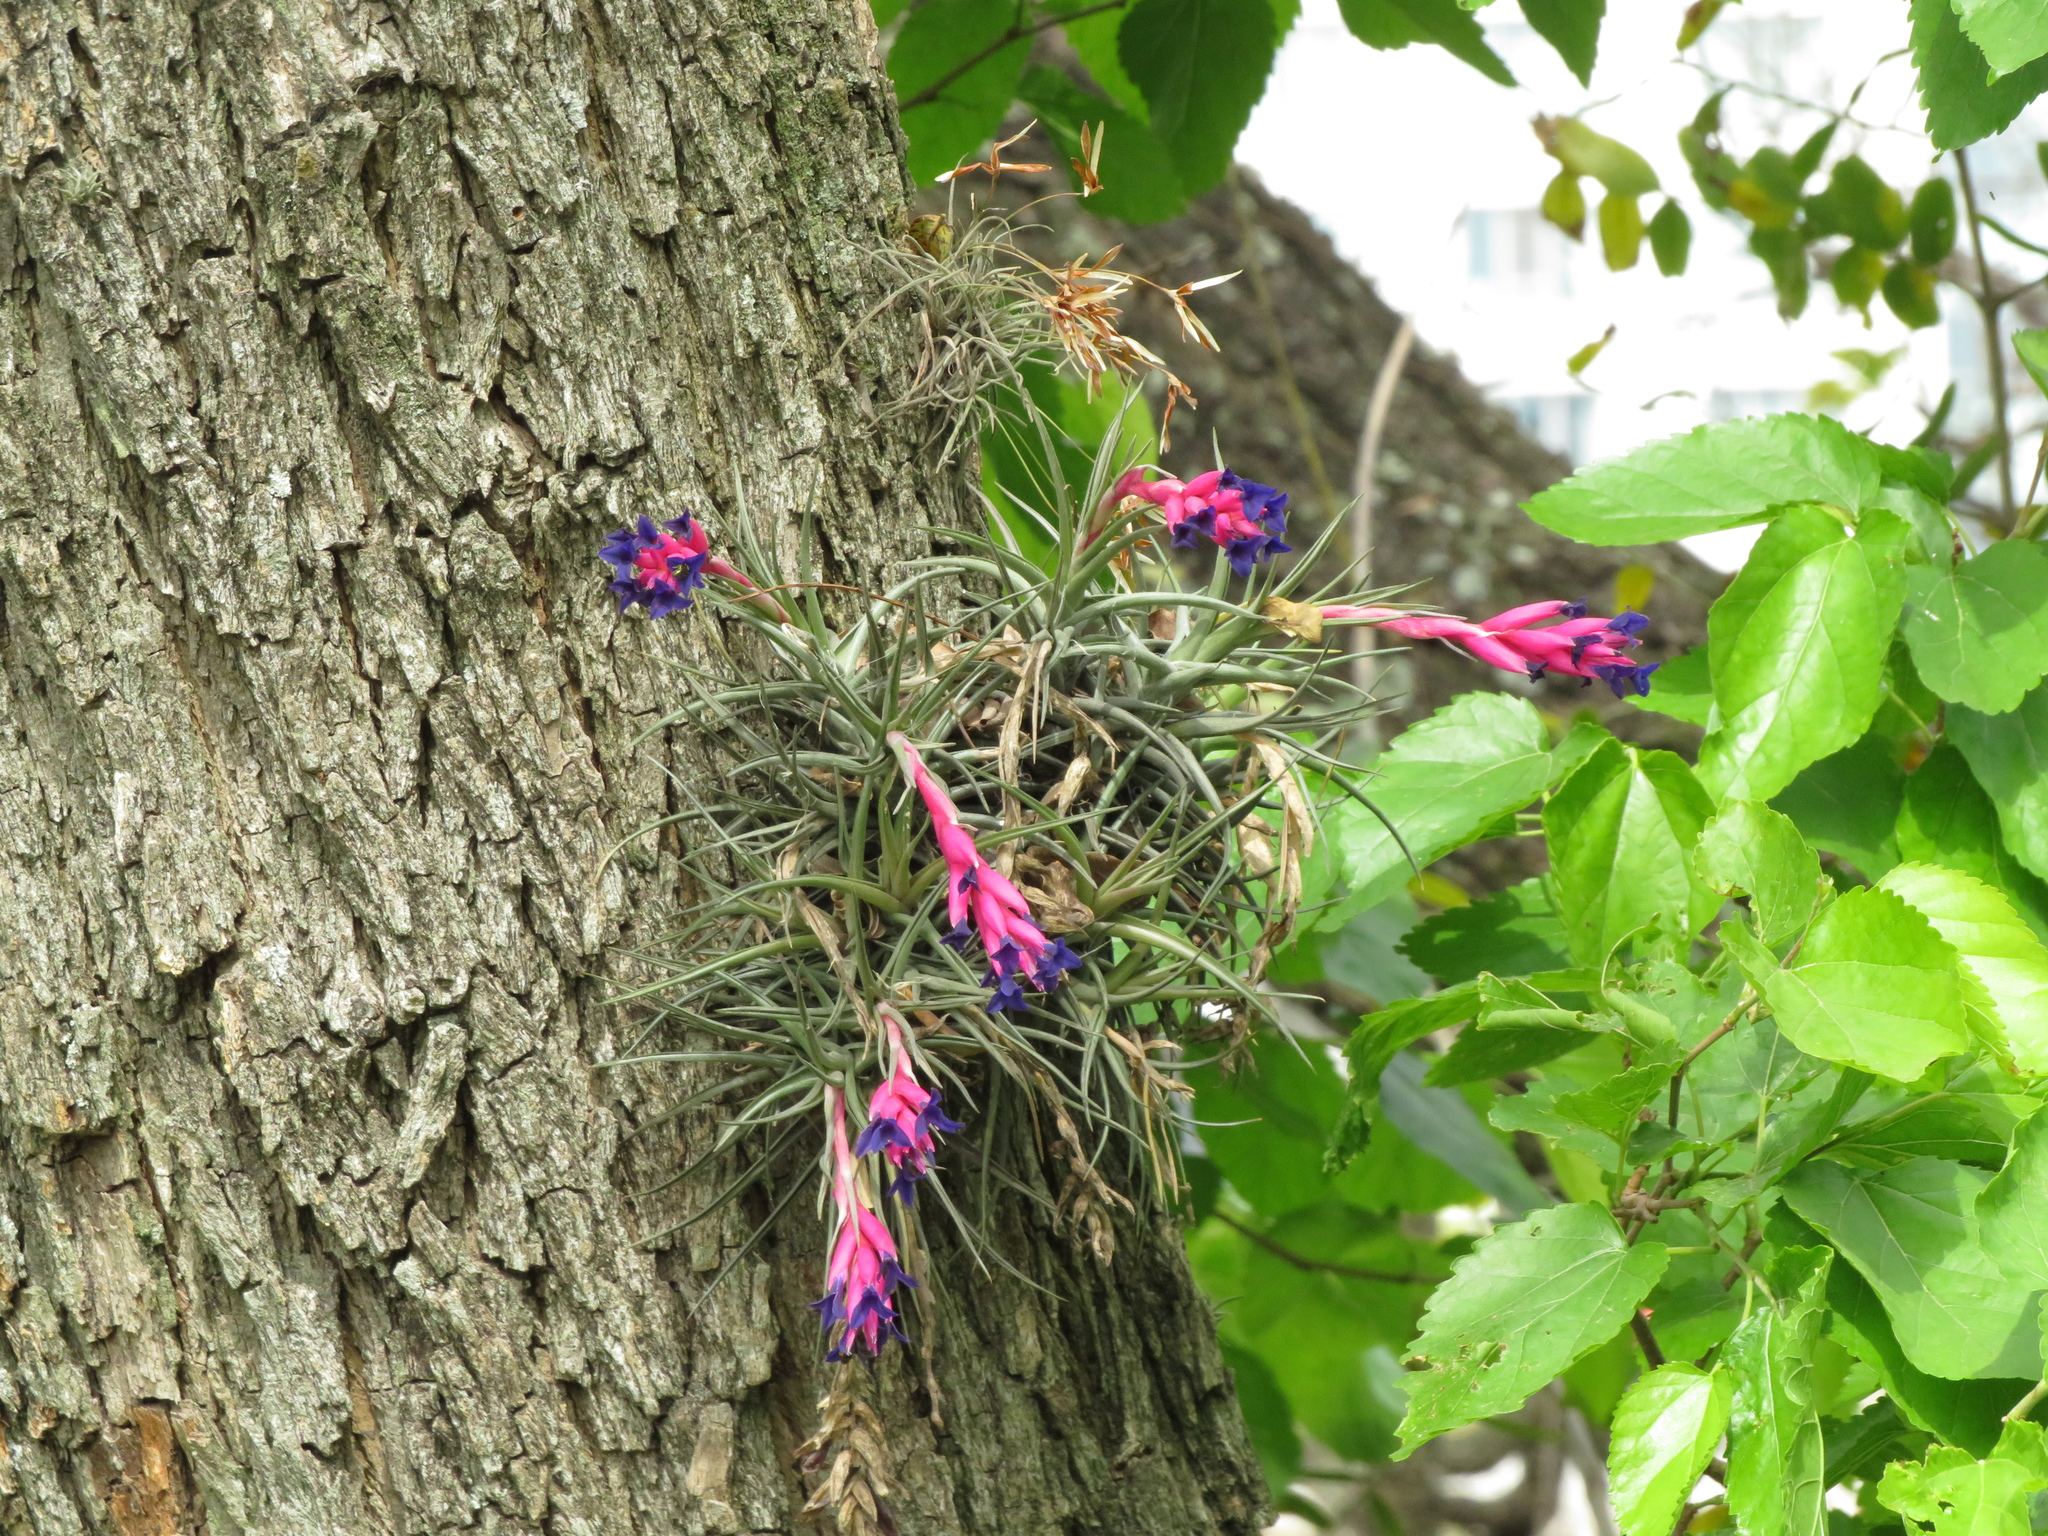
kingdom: Plantae
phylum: Tracheophyta
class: Liliopsida
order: Poales
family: Bromeliaceae
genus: Tillandsia
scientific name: Tillandsia aeranthos
